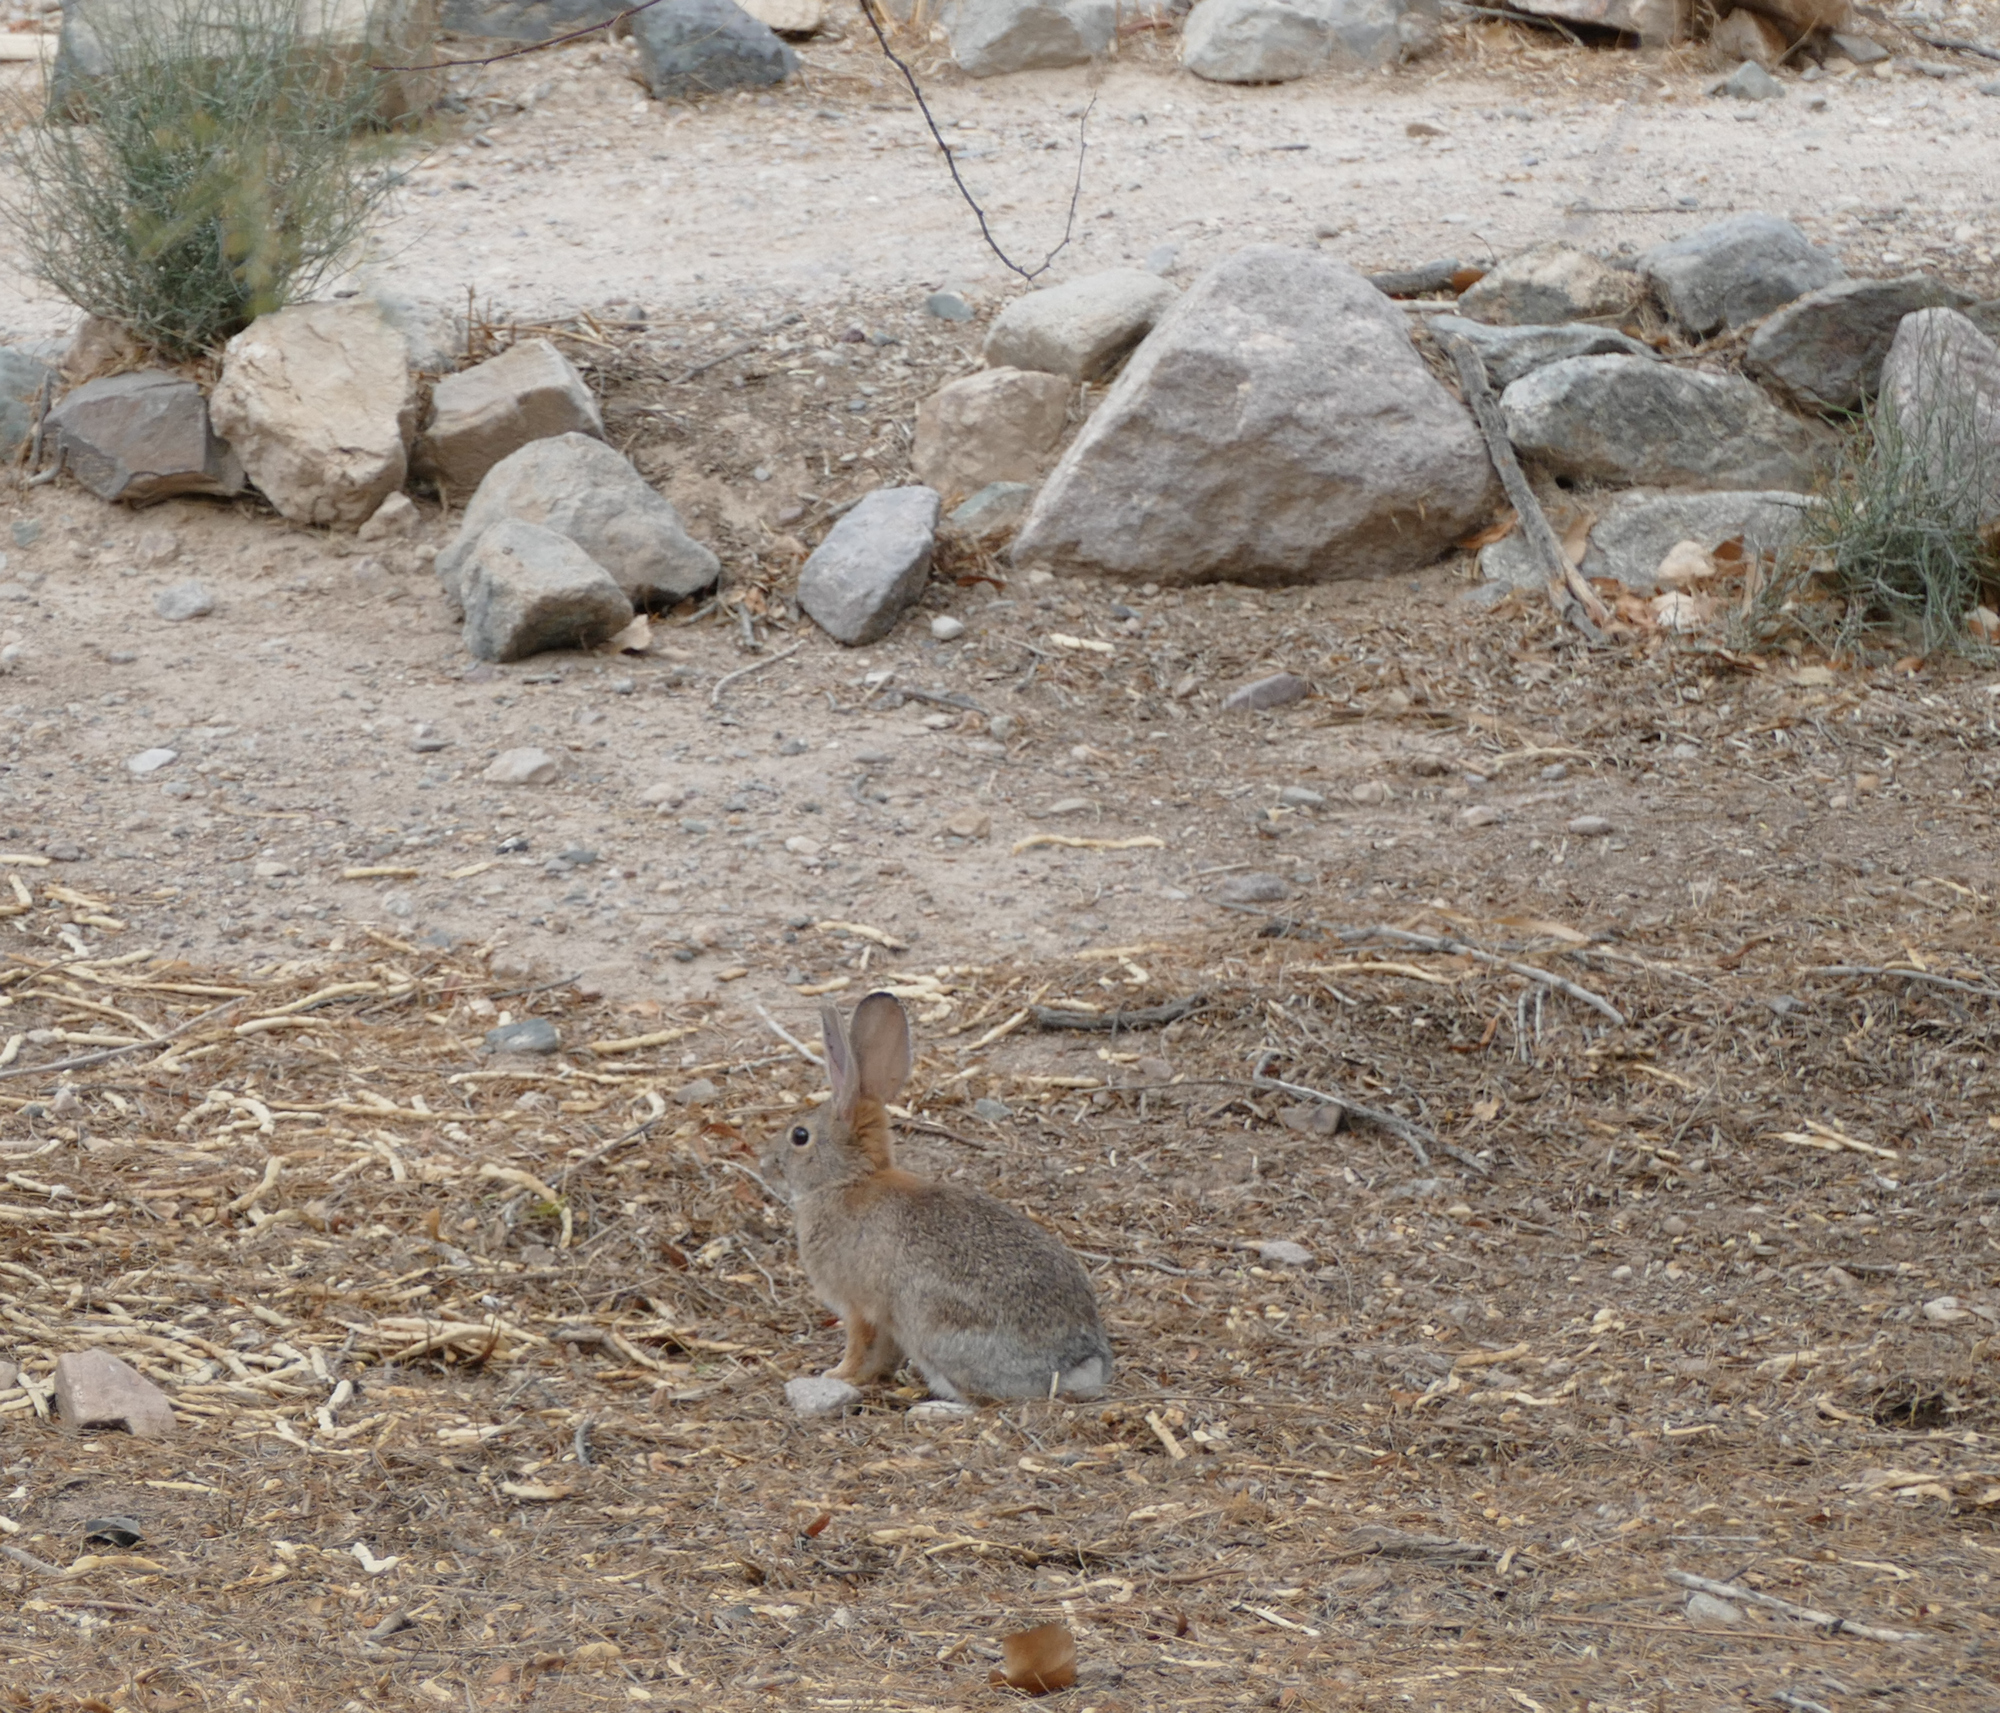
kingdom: Animalia
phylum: Chordata
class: Mammalia
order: Lagomorpha
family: Leporidae
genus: Sylvilagus
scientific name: Sylvilagus audubonii
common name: Desert cottontail
